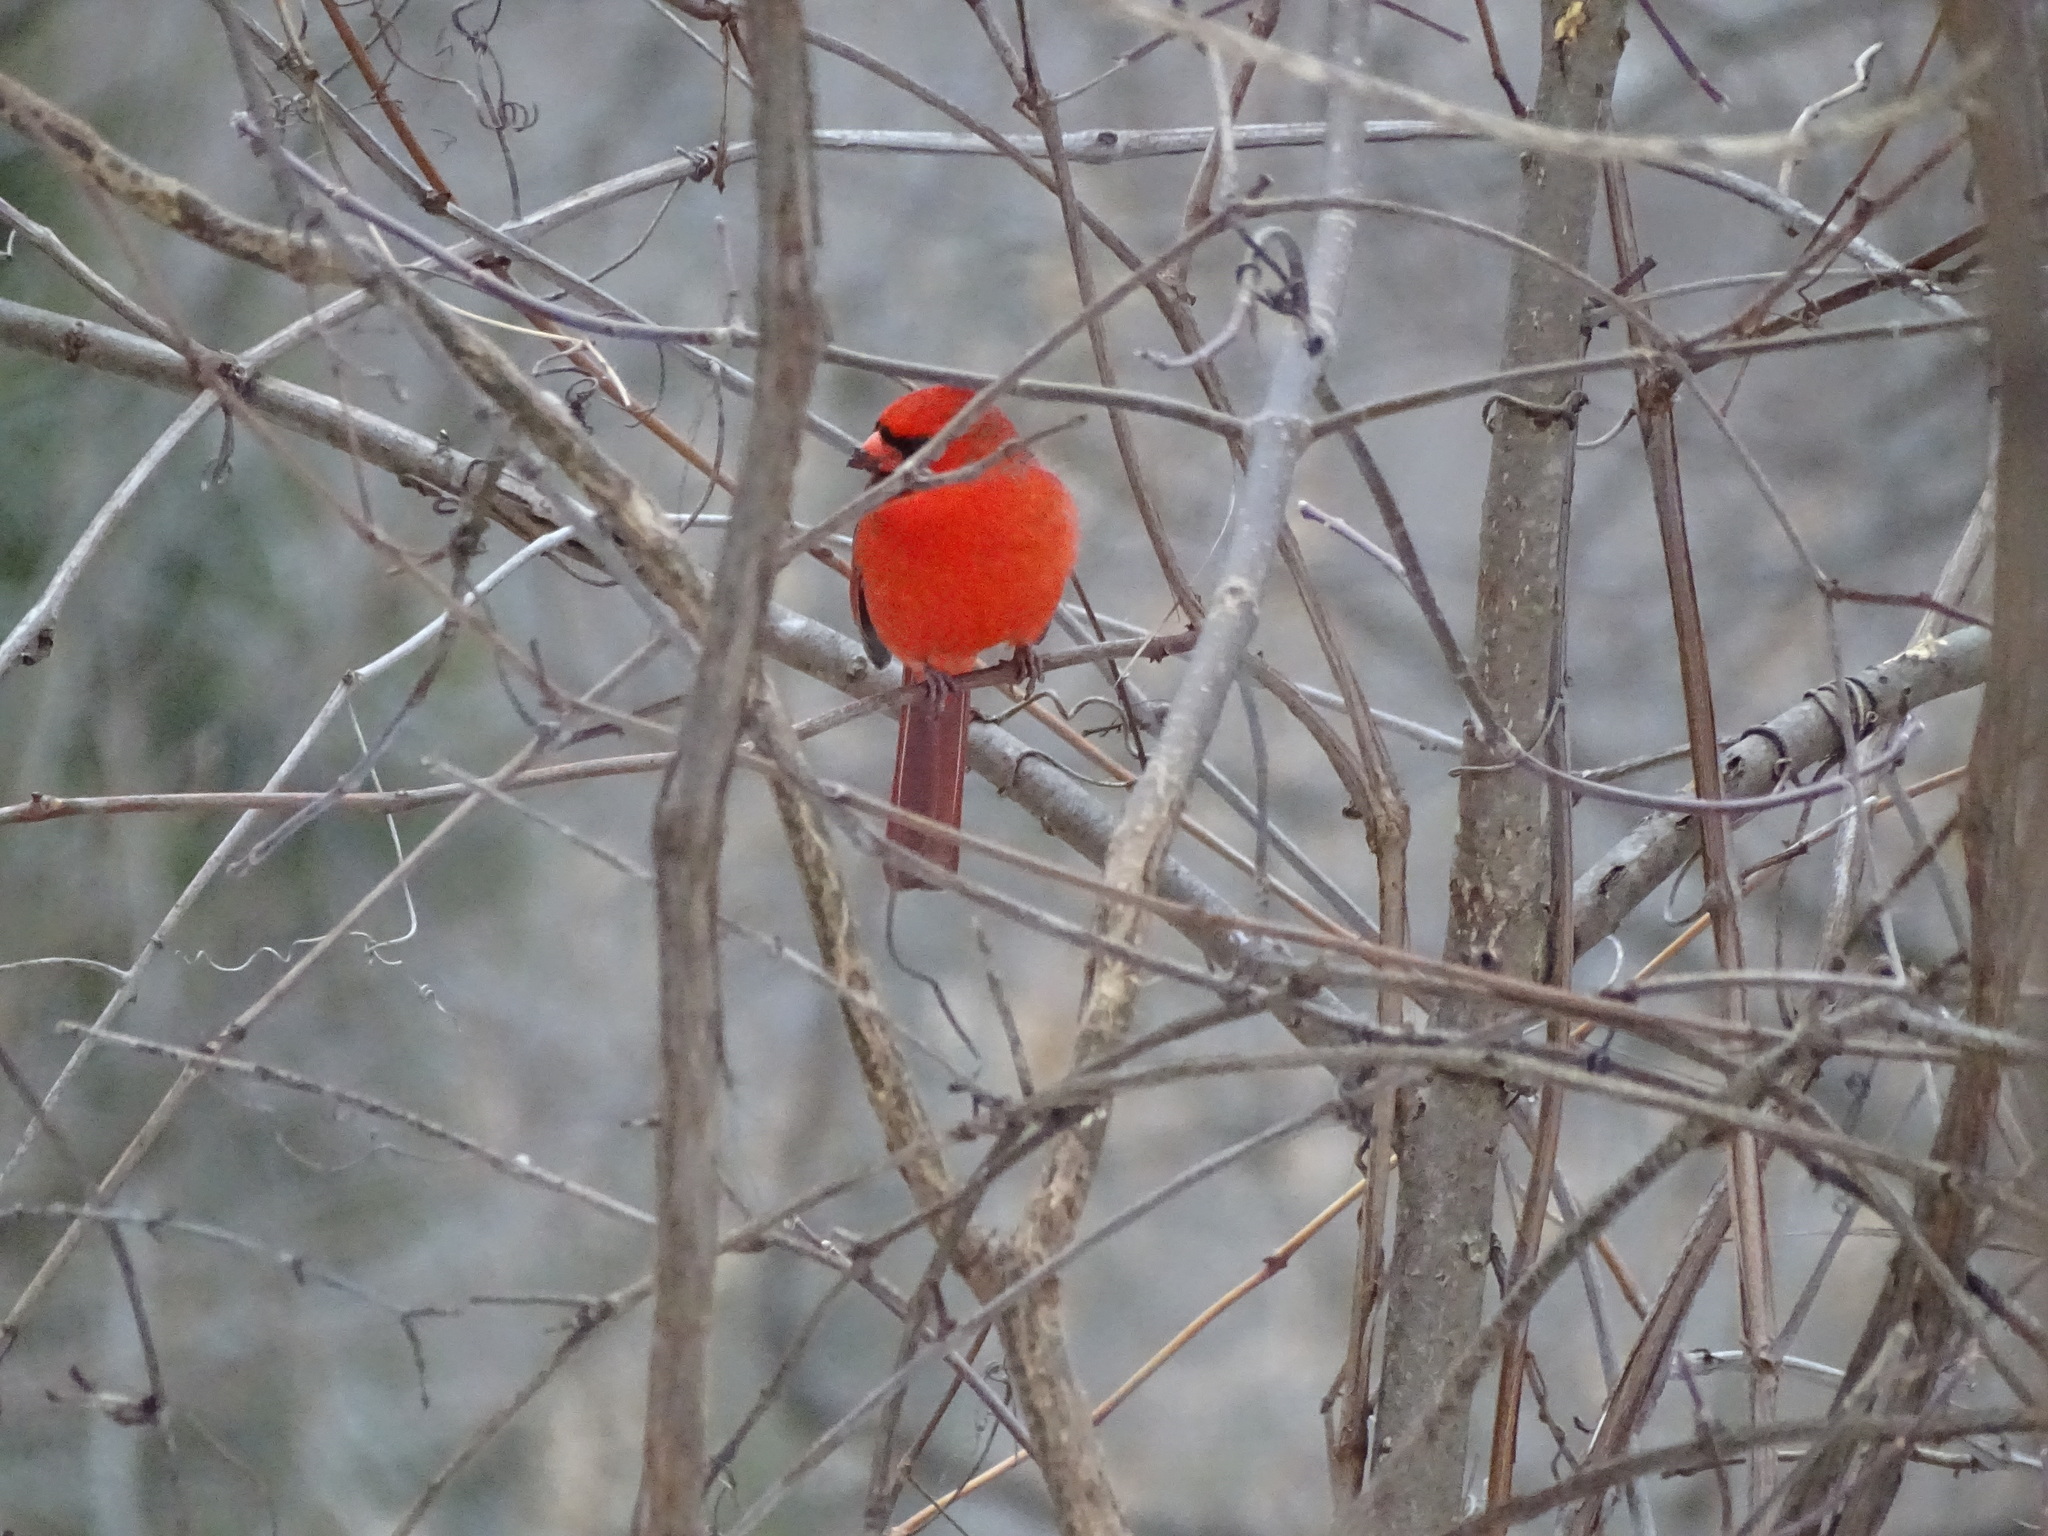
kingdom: Animalia
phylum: Chordata
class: Aves
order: Passeriformes
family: Cardinalidae
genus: Cardinalis
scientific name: Cardinalis cardinalis
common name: Northern cardinal
